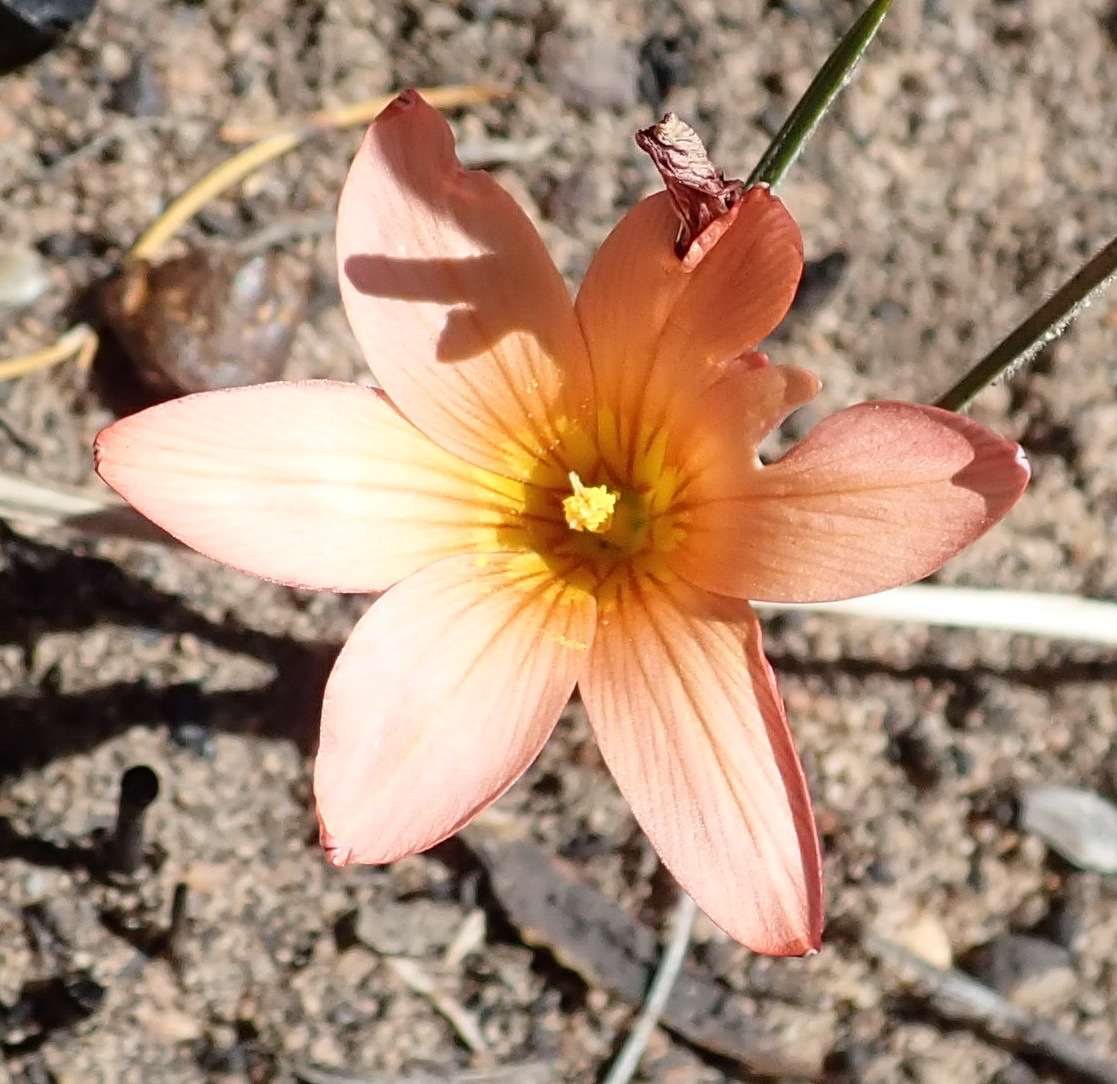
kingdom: Plantae
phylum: Tracheophyta
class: Liliopsida
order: Asparagales
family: Iridaceae
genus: Romulea
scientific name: Romulea setifolia
